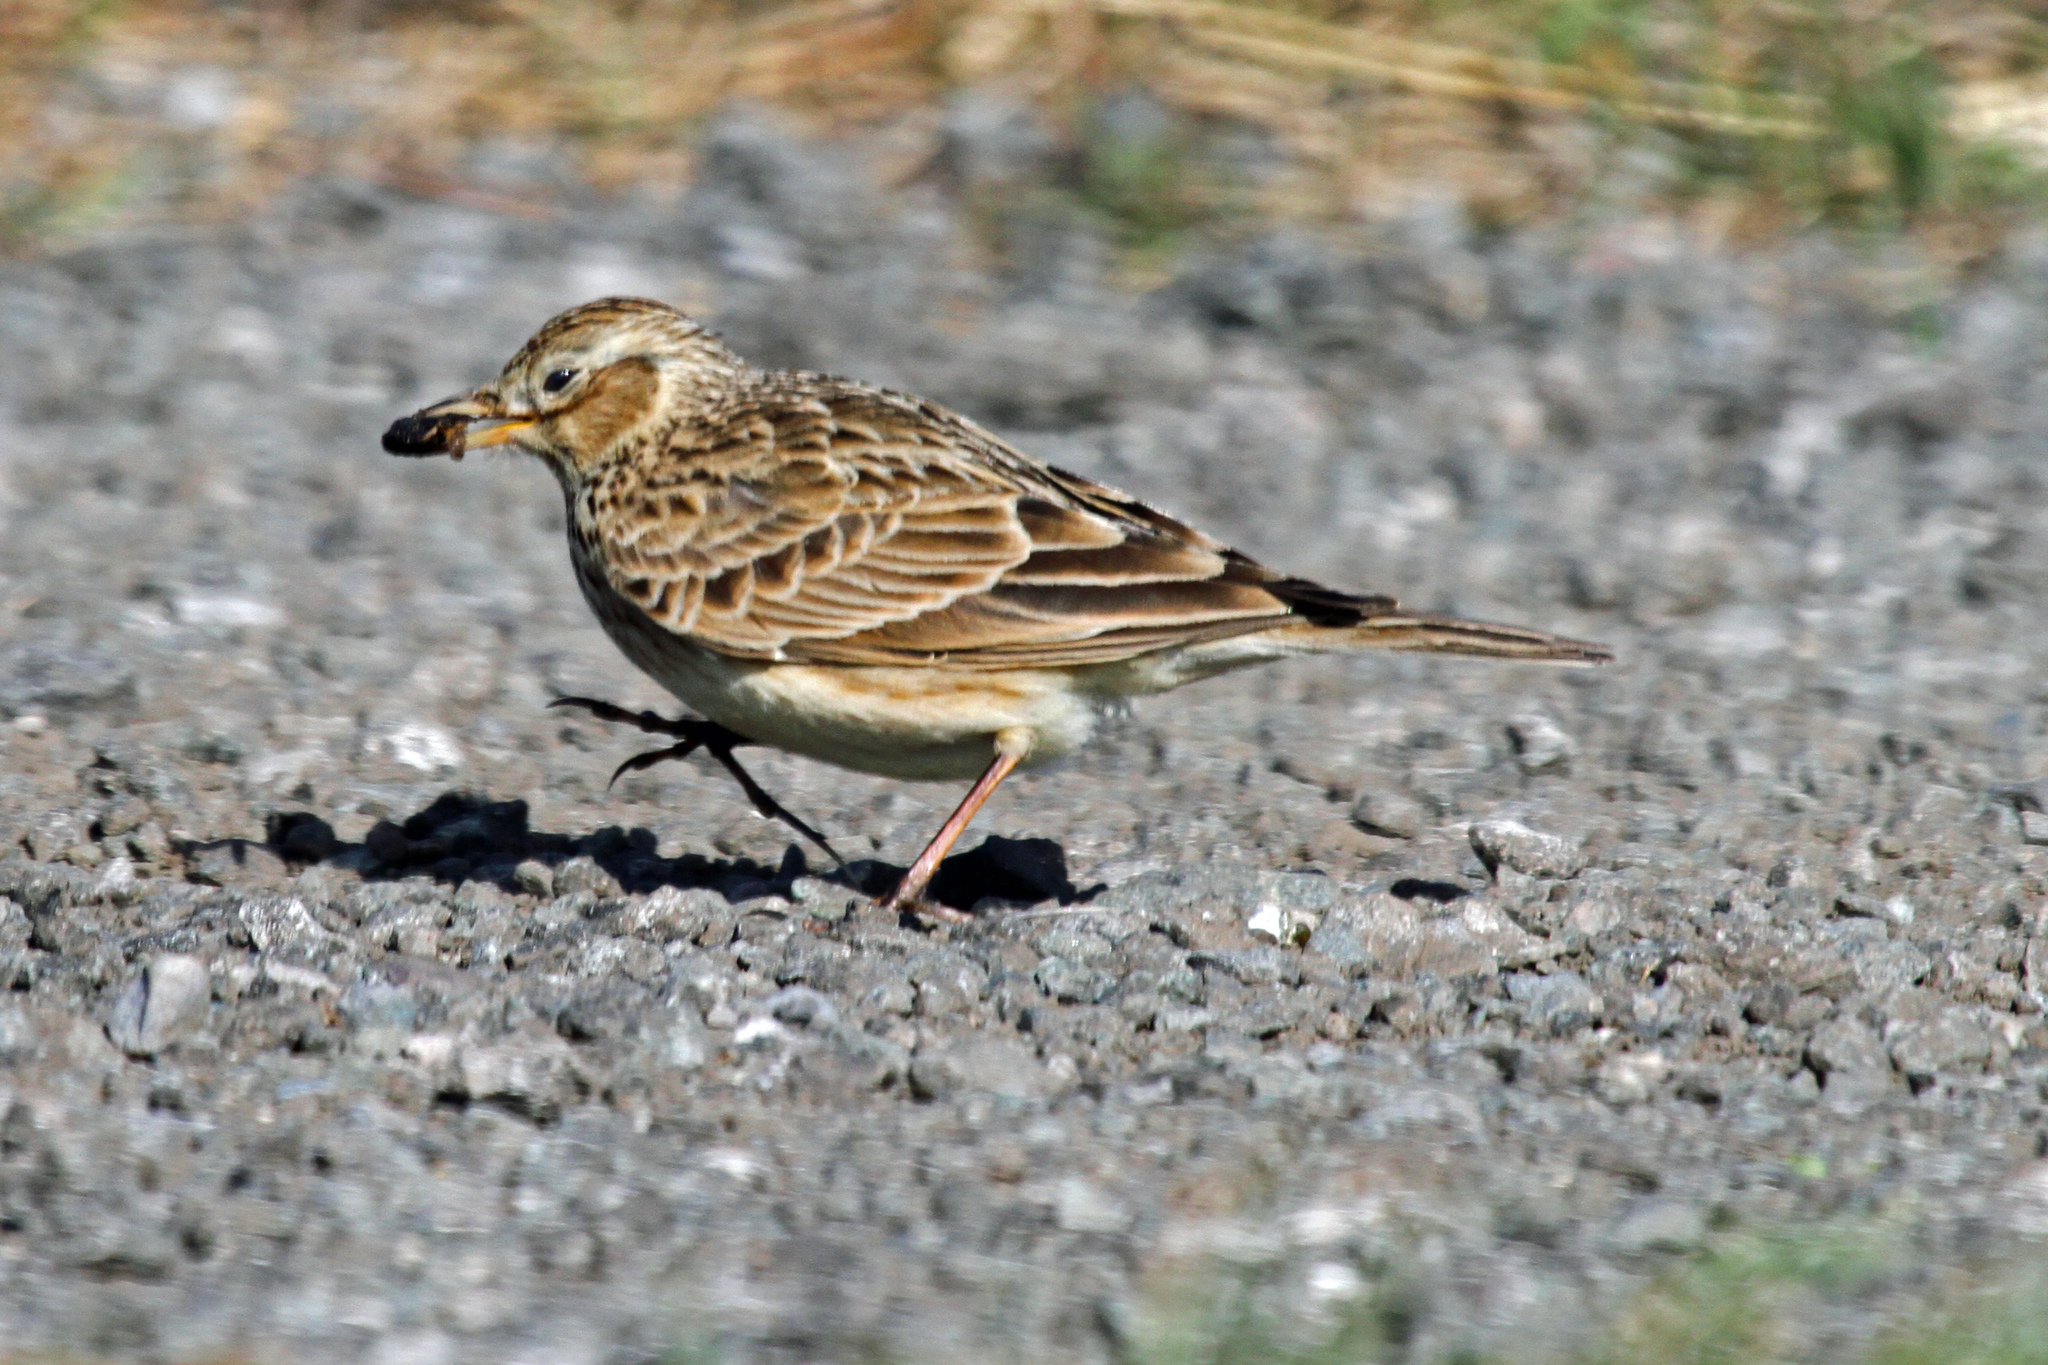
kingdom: Animalia
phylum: Chordata
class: Aves
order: Passeriformes
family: Alaudidae
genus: Alauda
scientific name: Alauda arvensis
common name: Eurasian skylark
